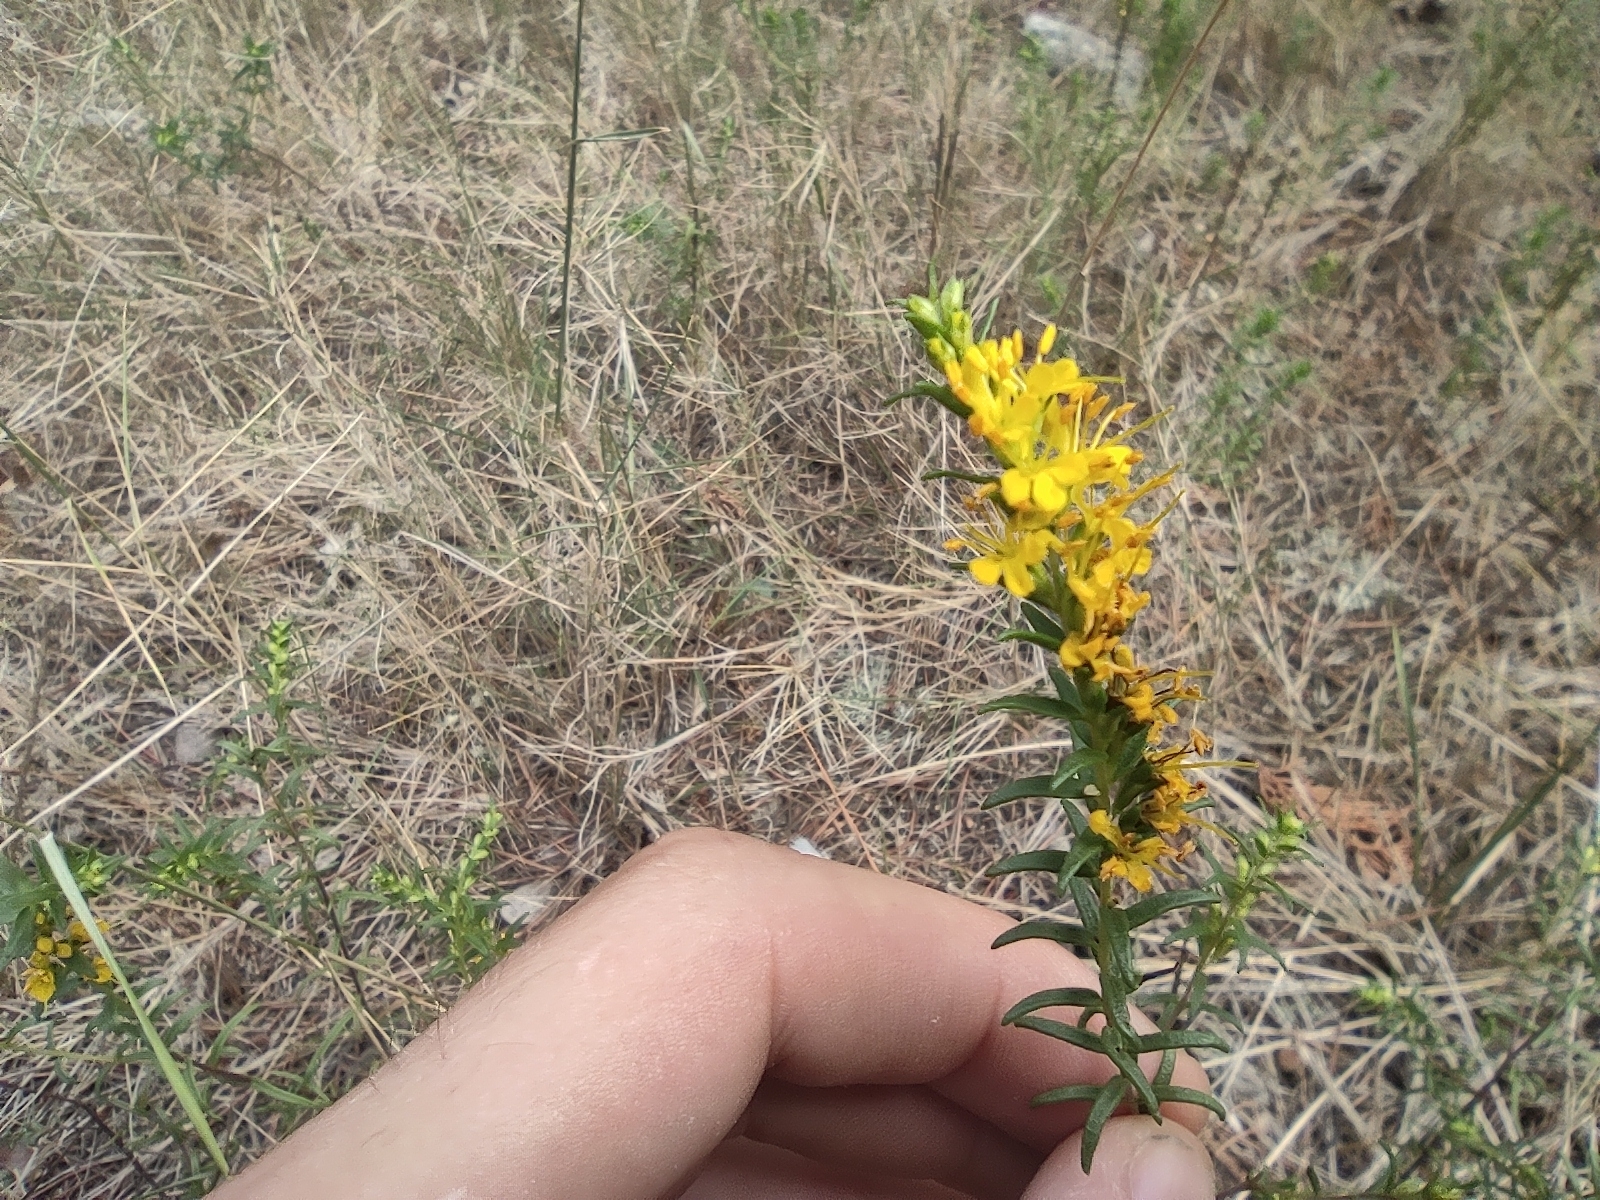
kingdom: Plantae
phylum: Tracheophyta
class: Magnoliopsida
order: Lamiales
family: Orobanchaceae
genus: Odontites
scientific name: Odontites luteus
